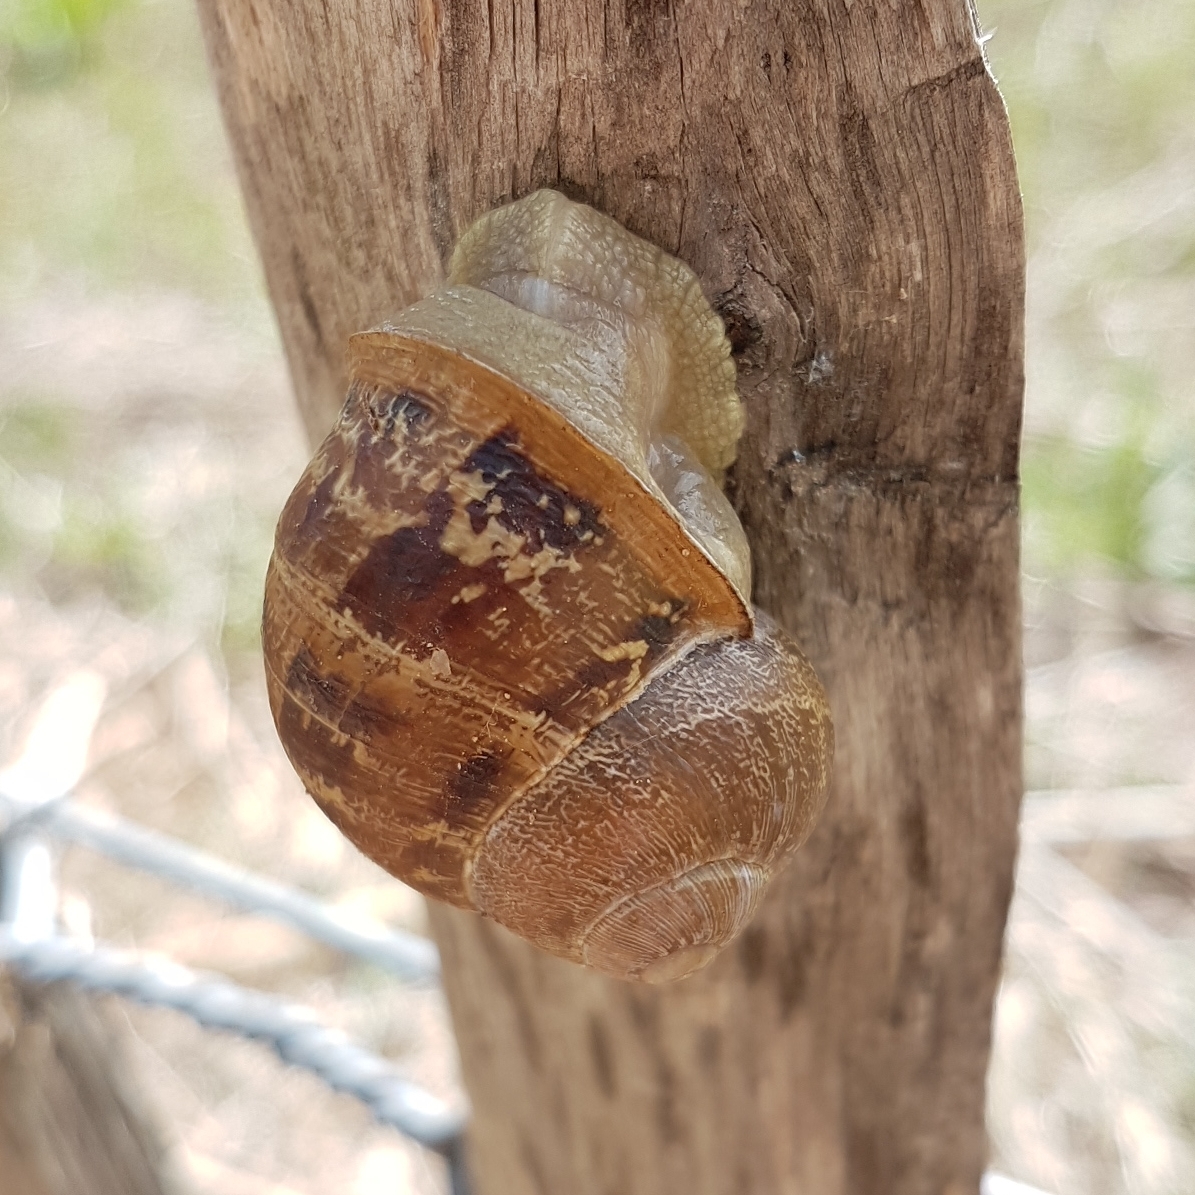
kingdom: Animalia
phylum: Mollusca
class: Gastropoda
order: Stylommatophora
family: Helicidae
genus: Cornu
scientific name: Cornu aspersum
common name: Brown garden snail
